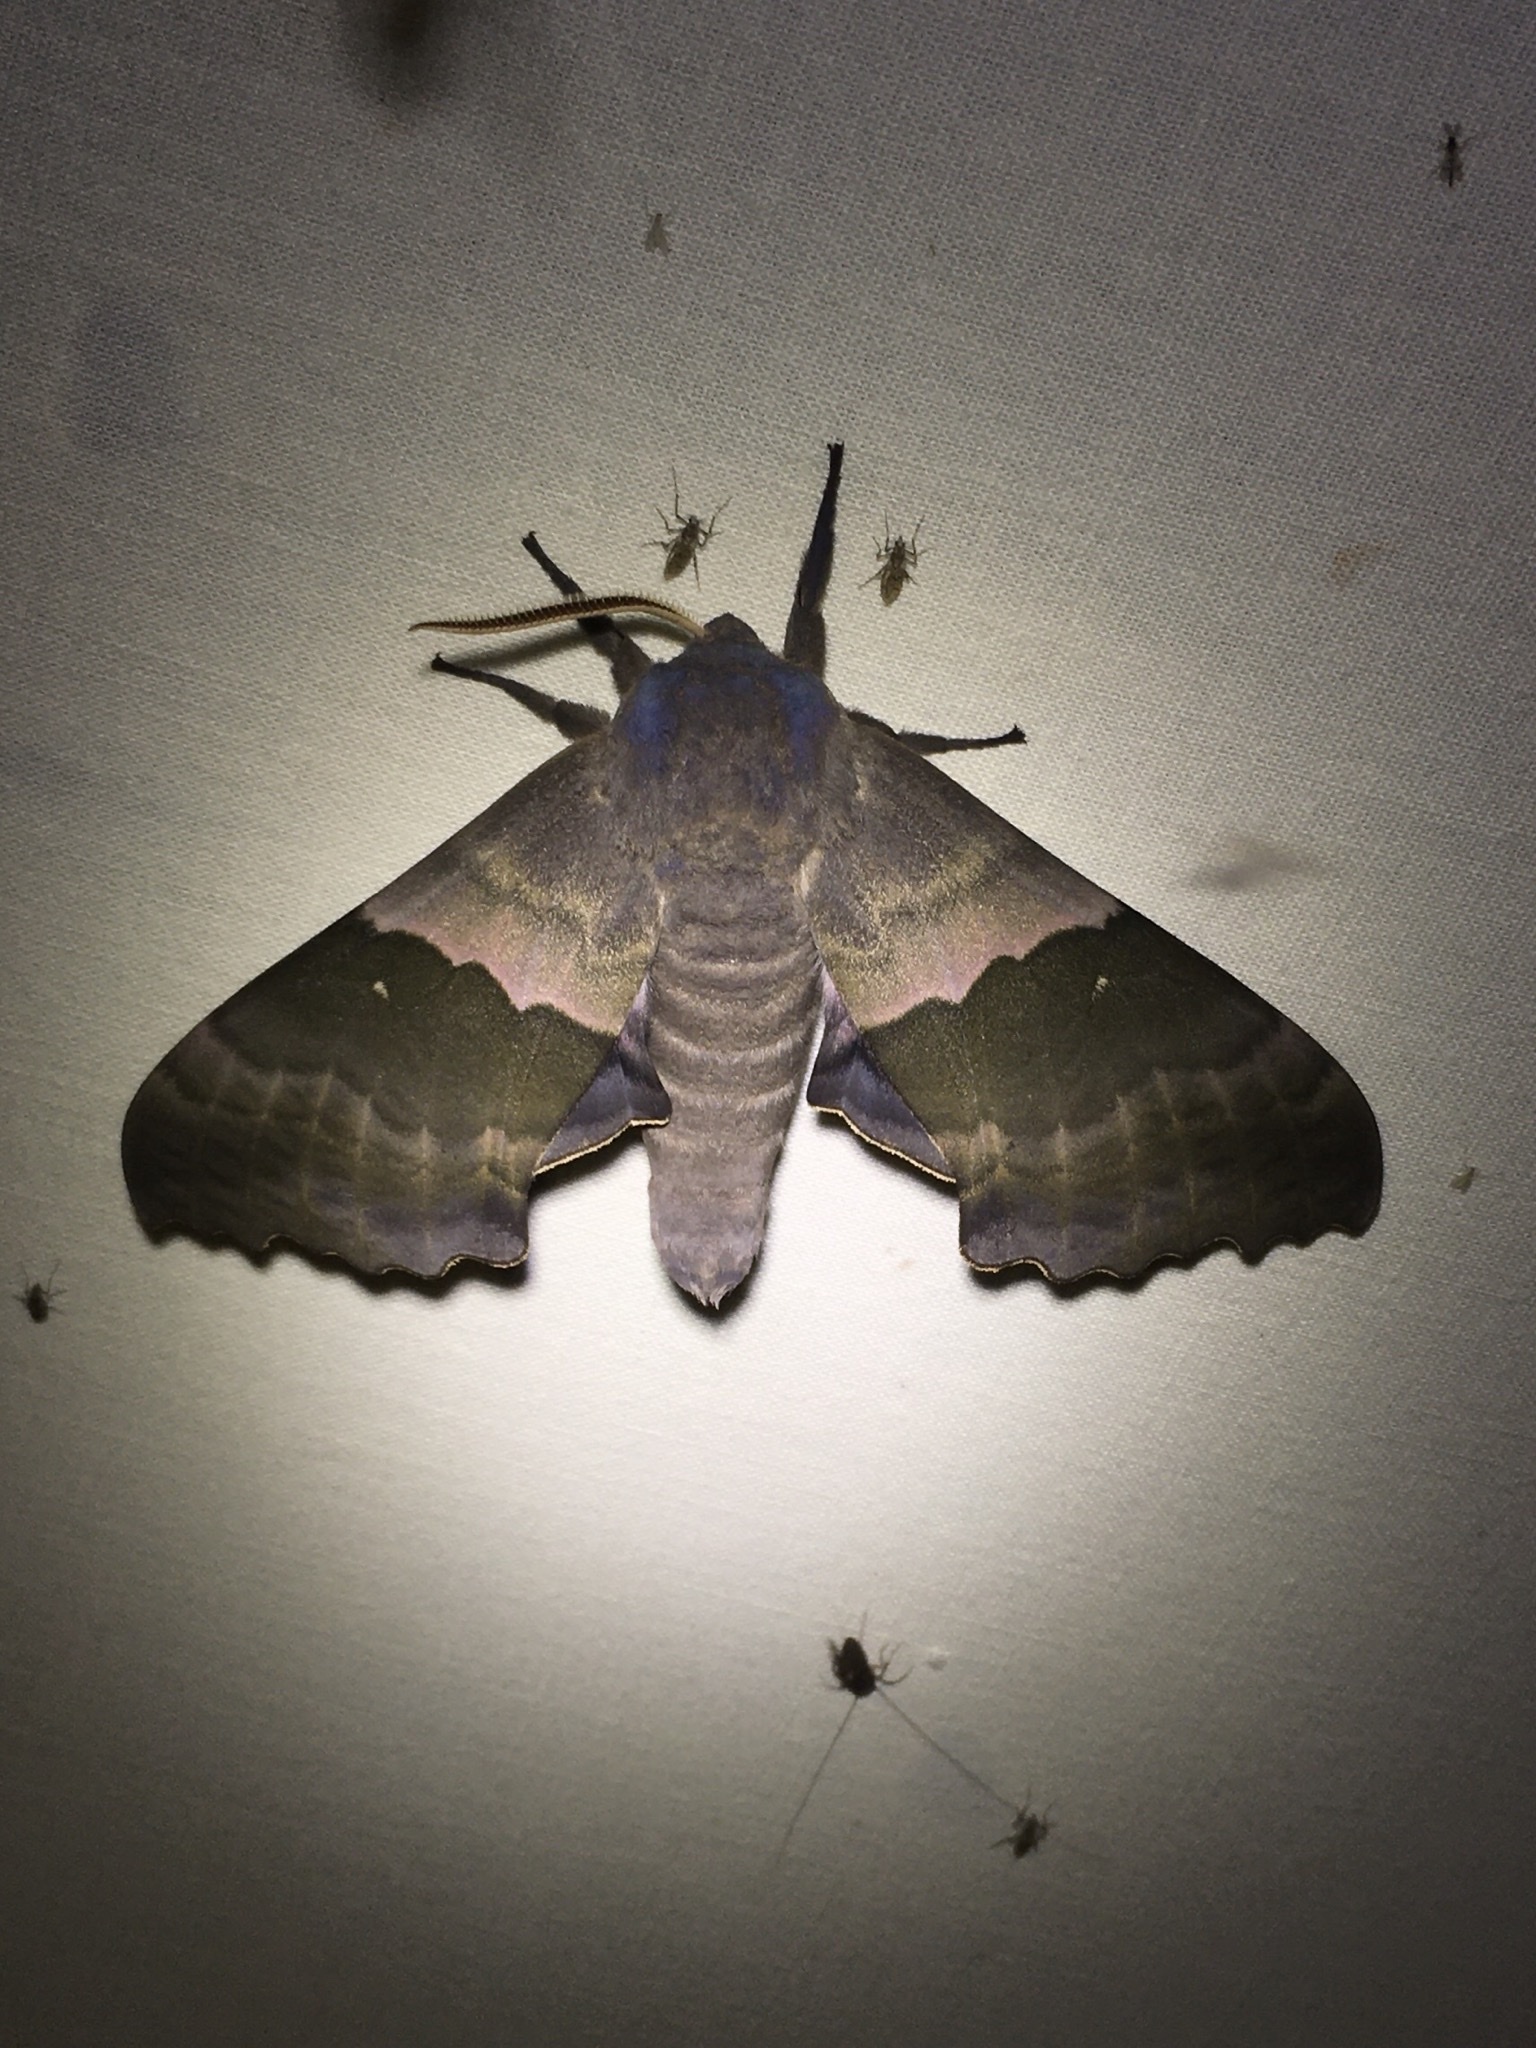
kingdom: Animalia
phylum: Arthropoda
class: Insecta
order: Lepidoptera
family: Sphingidae
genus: Pachysphinx
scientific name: Pachysphinx modesta
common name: Big poplar sphinx
